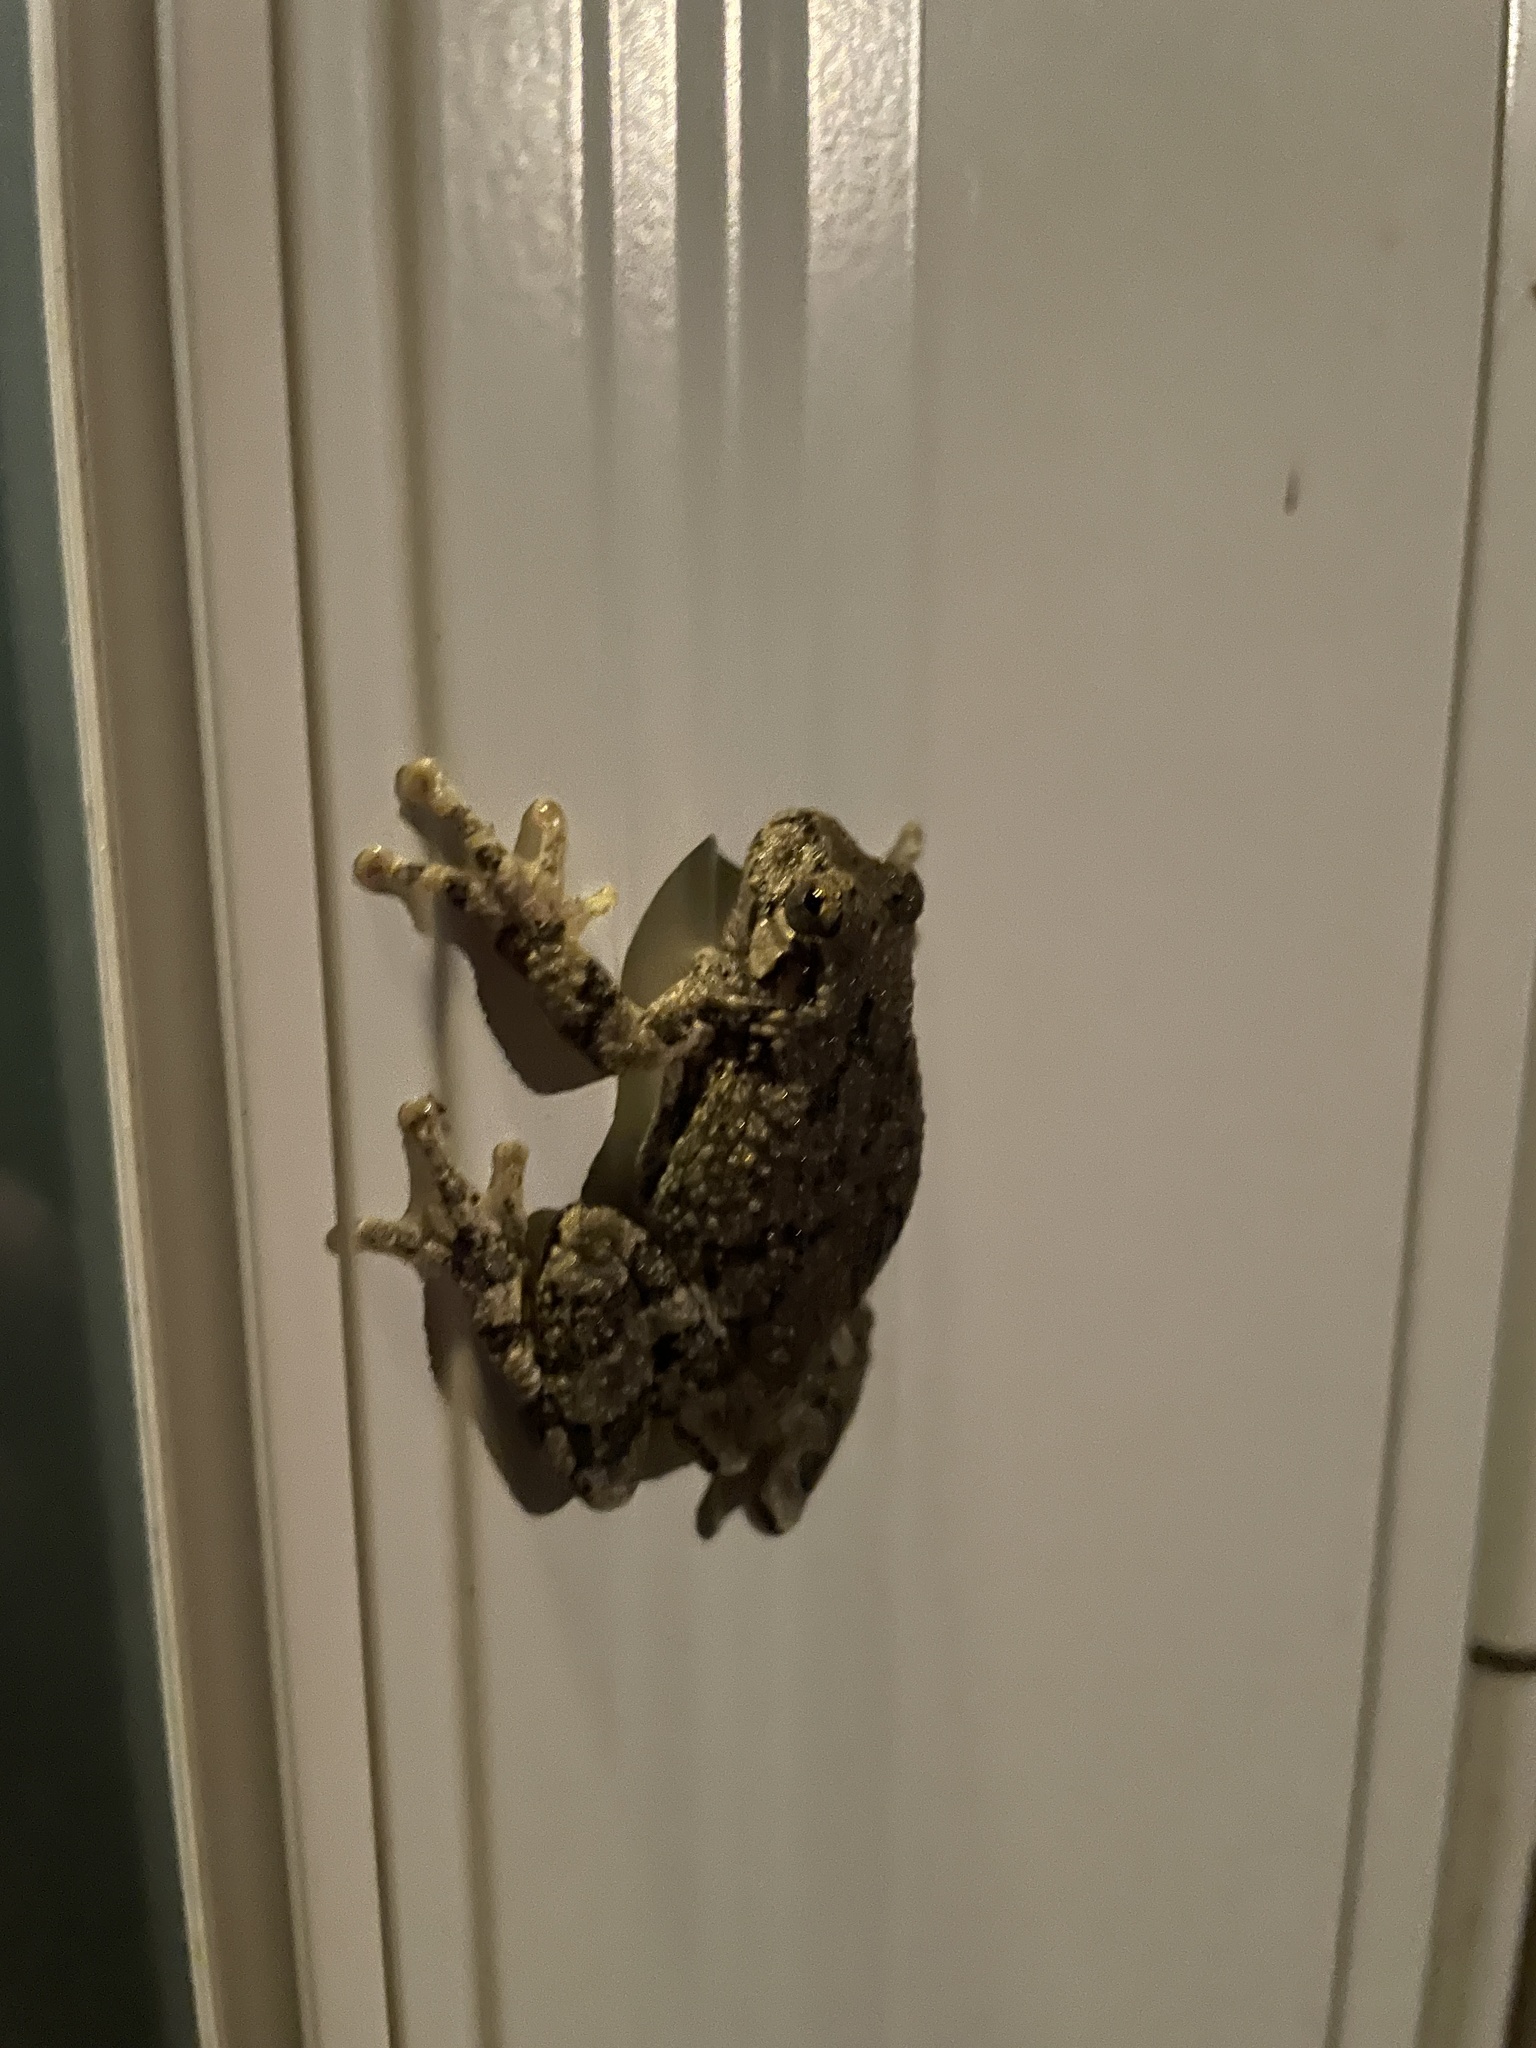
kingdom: Animalia
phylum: Chordata
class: Amphibia
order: Anura
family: Hylidae
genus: Dryophytes
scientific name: Dryophytes versicolor
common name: Gray treefrog
